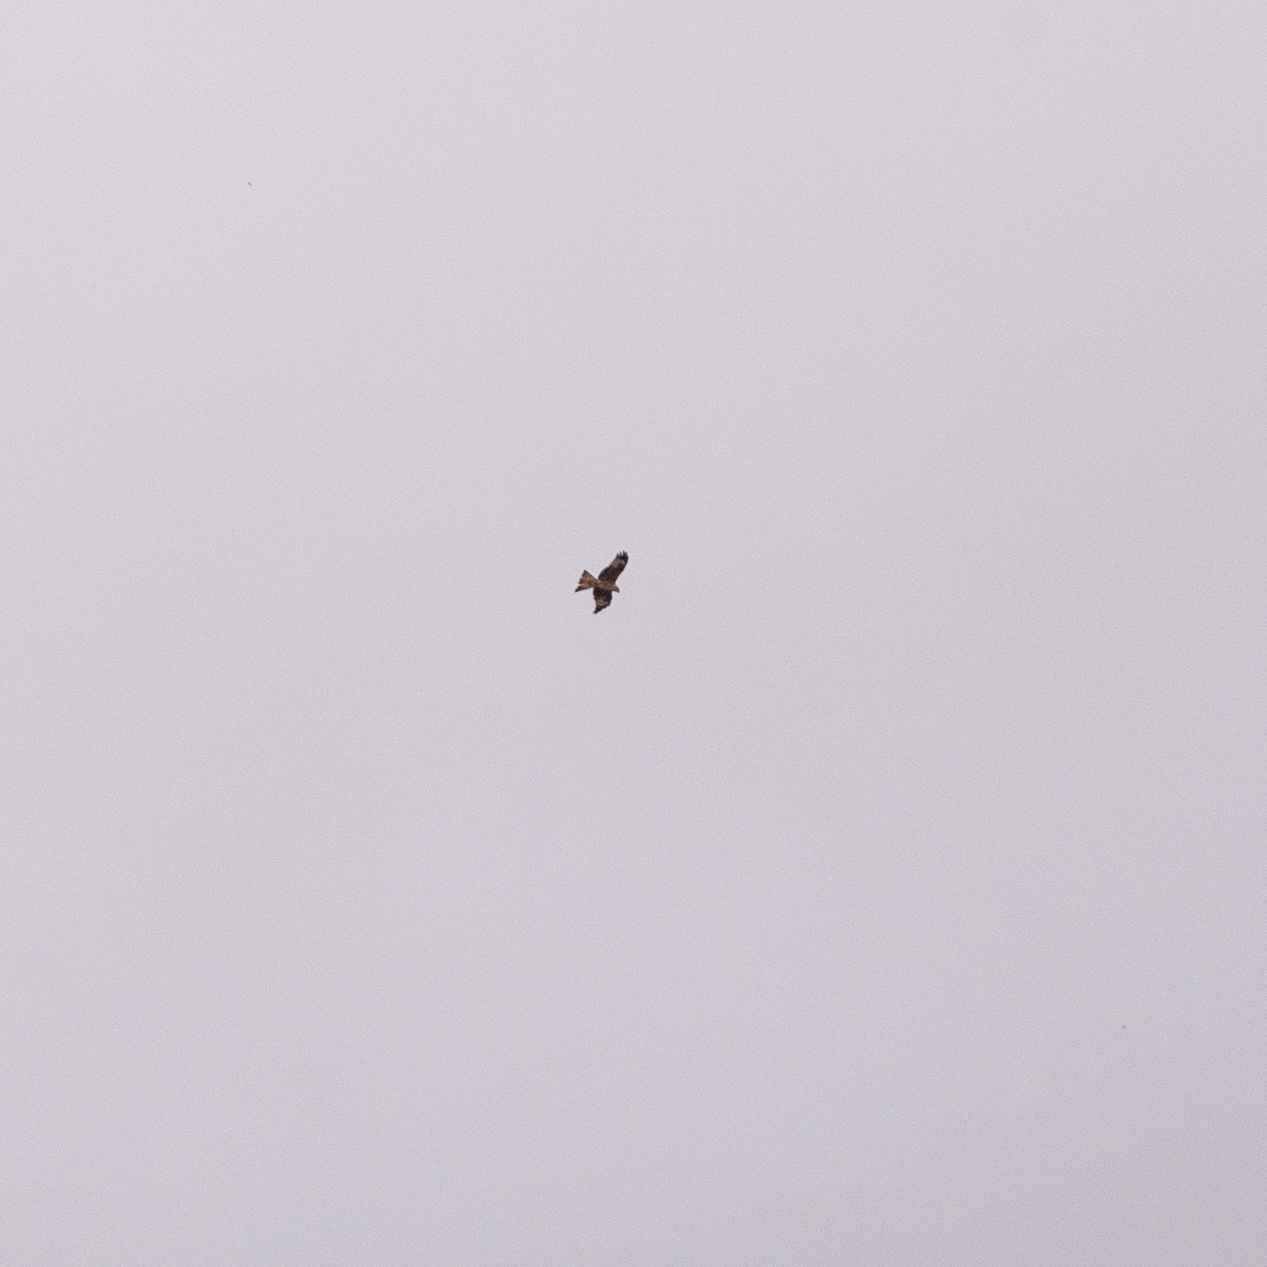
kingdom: Animalia
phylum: Chordata
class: Aves
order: Accipitriformes
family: Accipitridae
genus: Milvus
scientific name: Milvus milvus
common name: Red kite
